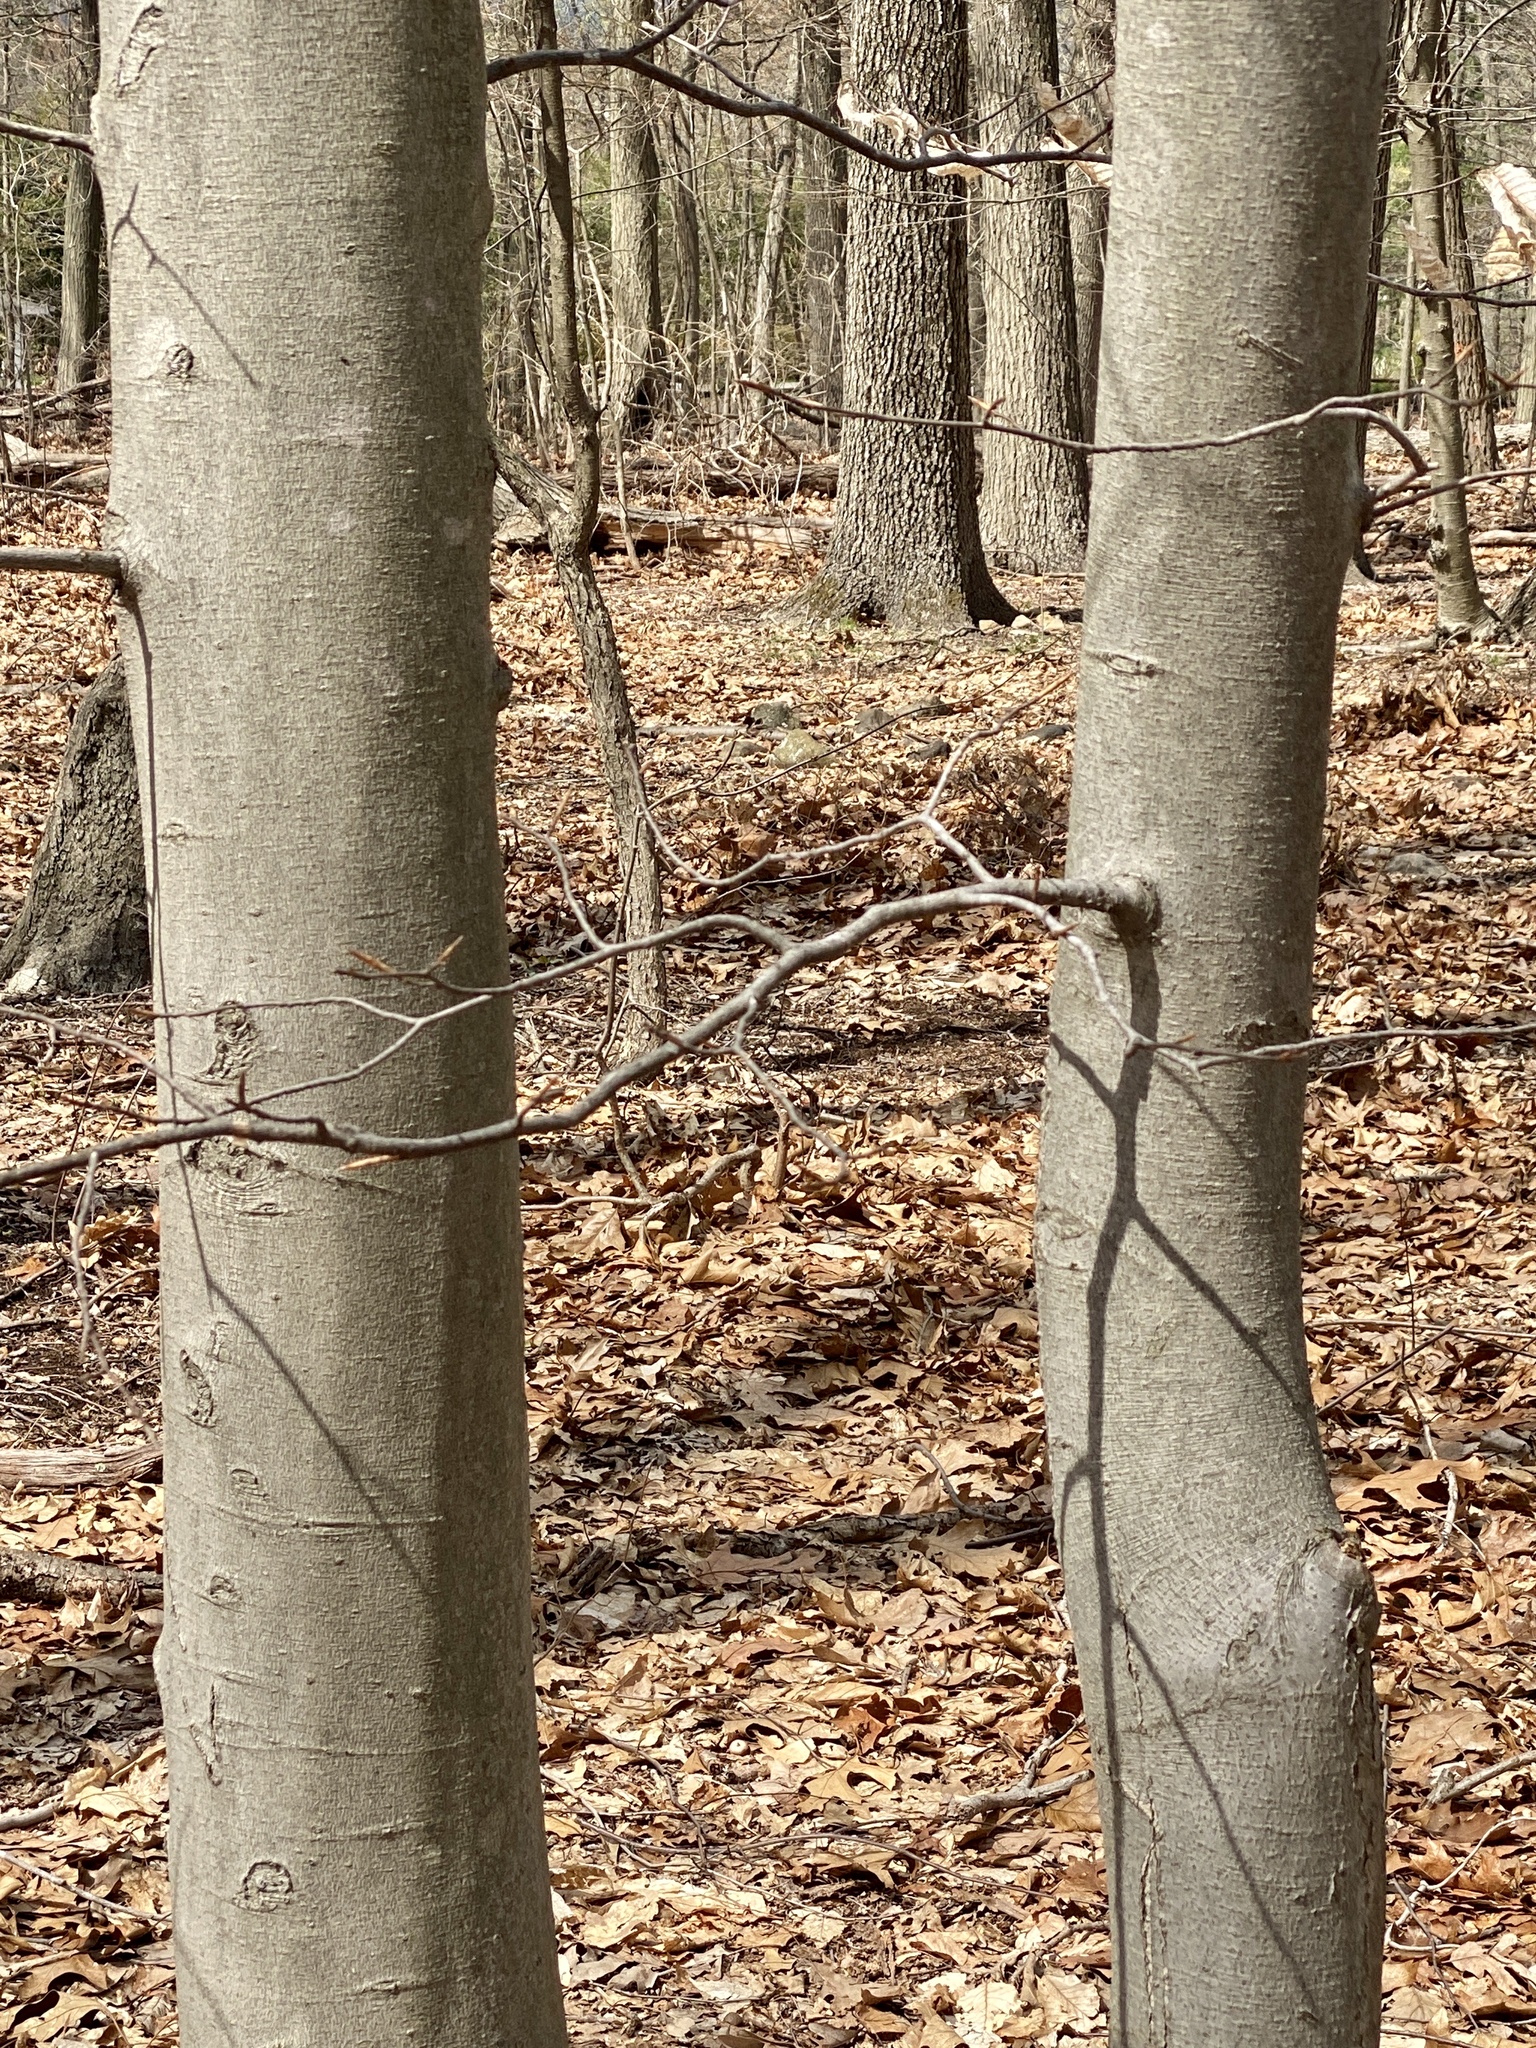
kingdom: Plantae
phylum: Tracheophyta
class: Magnoliopsida
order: Fagales
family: Fagaceae
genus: Fagus
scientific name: Fagus grandifolia
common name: American beech
